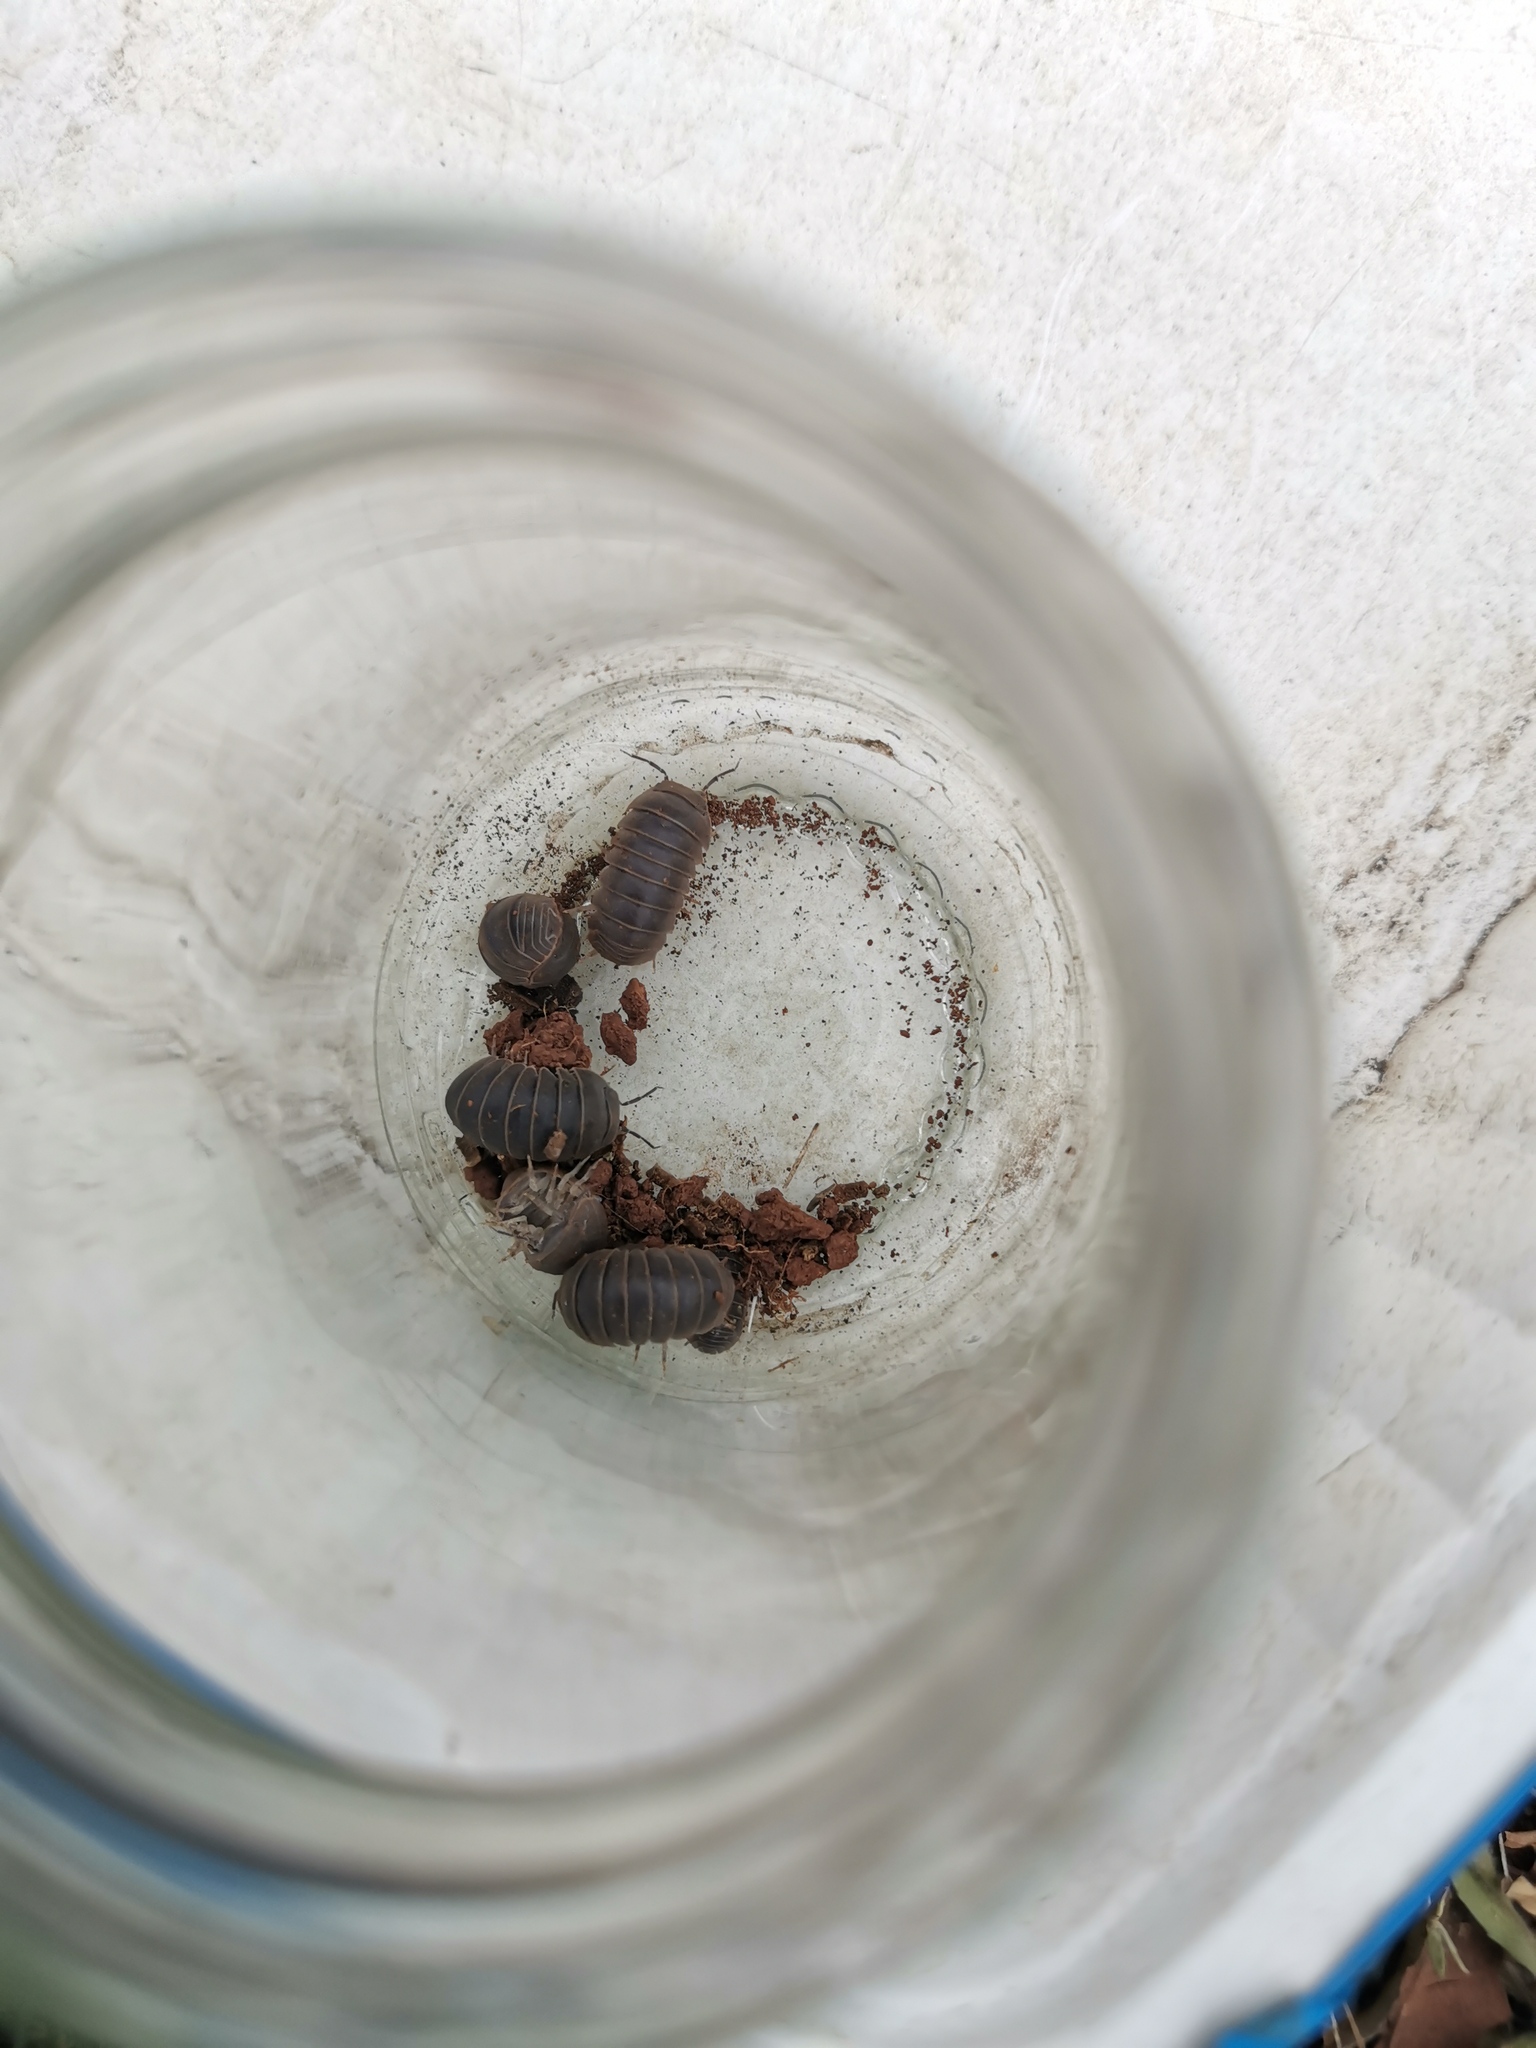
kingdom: Animalia
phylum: Arthropoda
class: Malacostraca
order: Isopoda
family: Armadillidae
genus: Armadillo
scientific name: Armadillo officinalis
